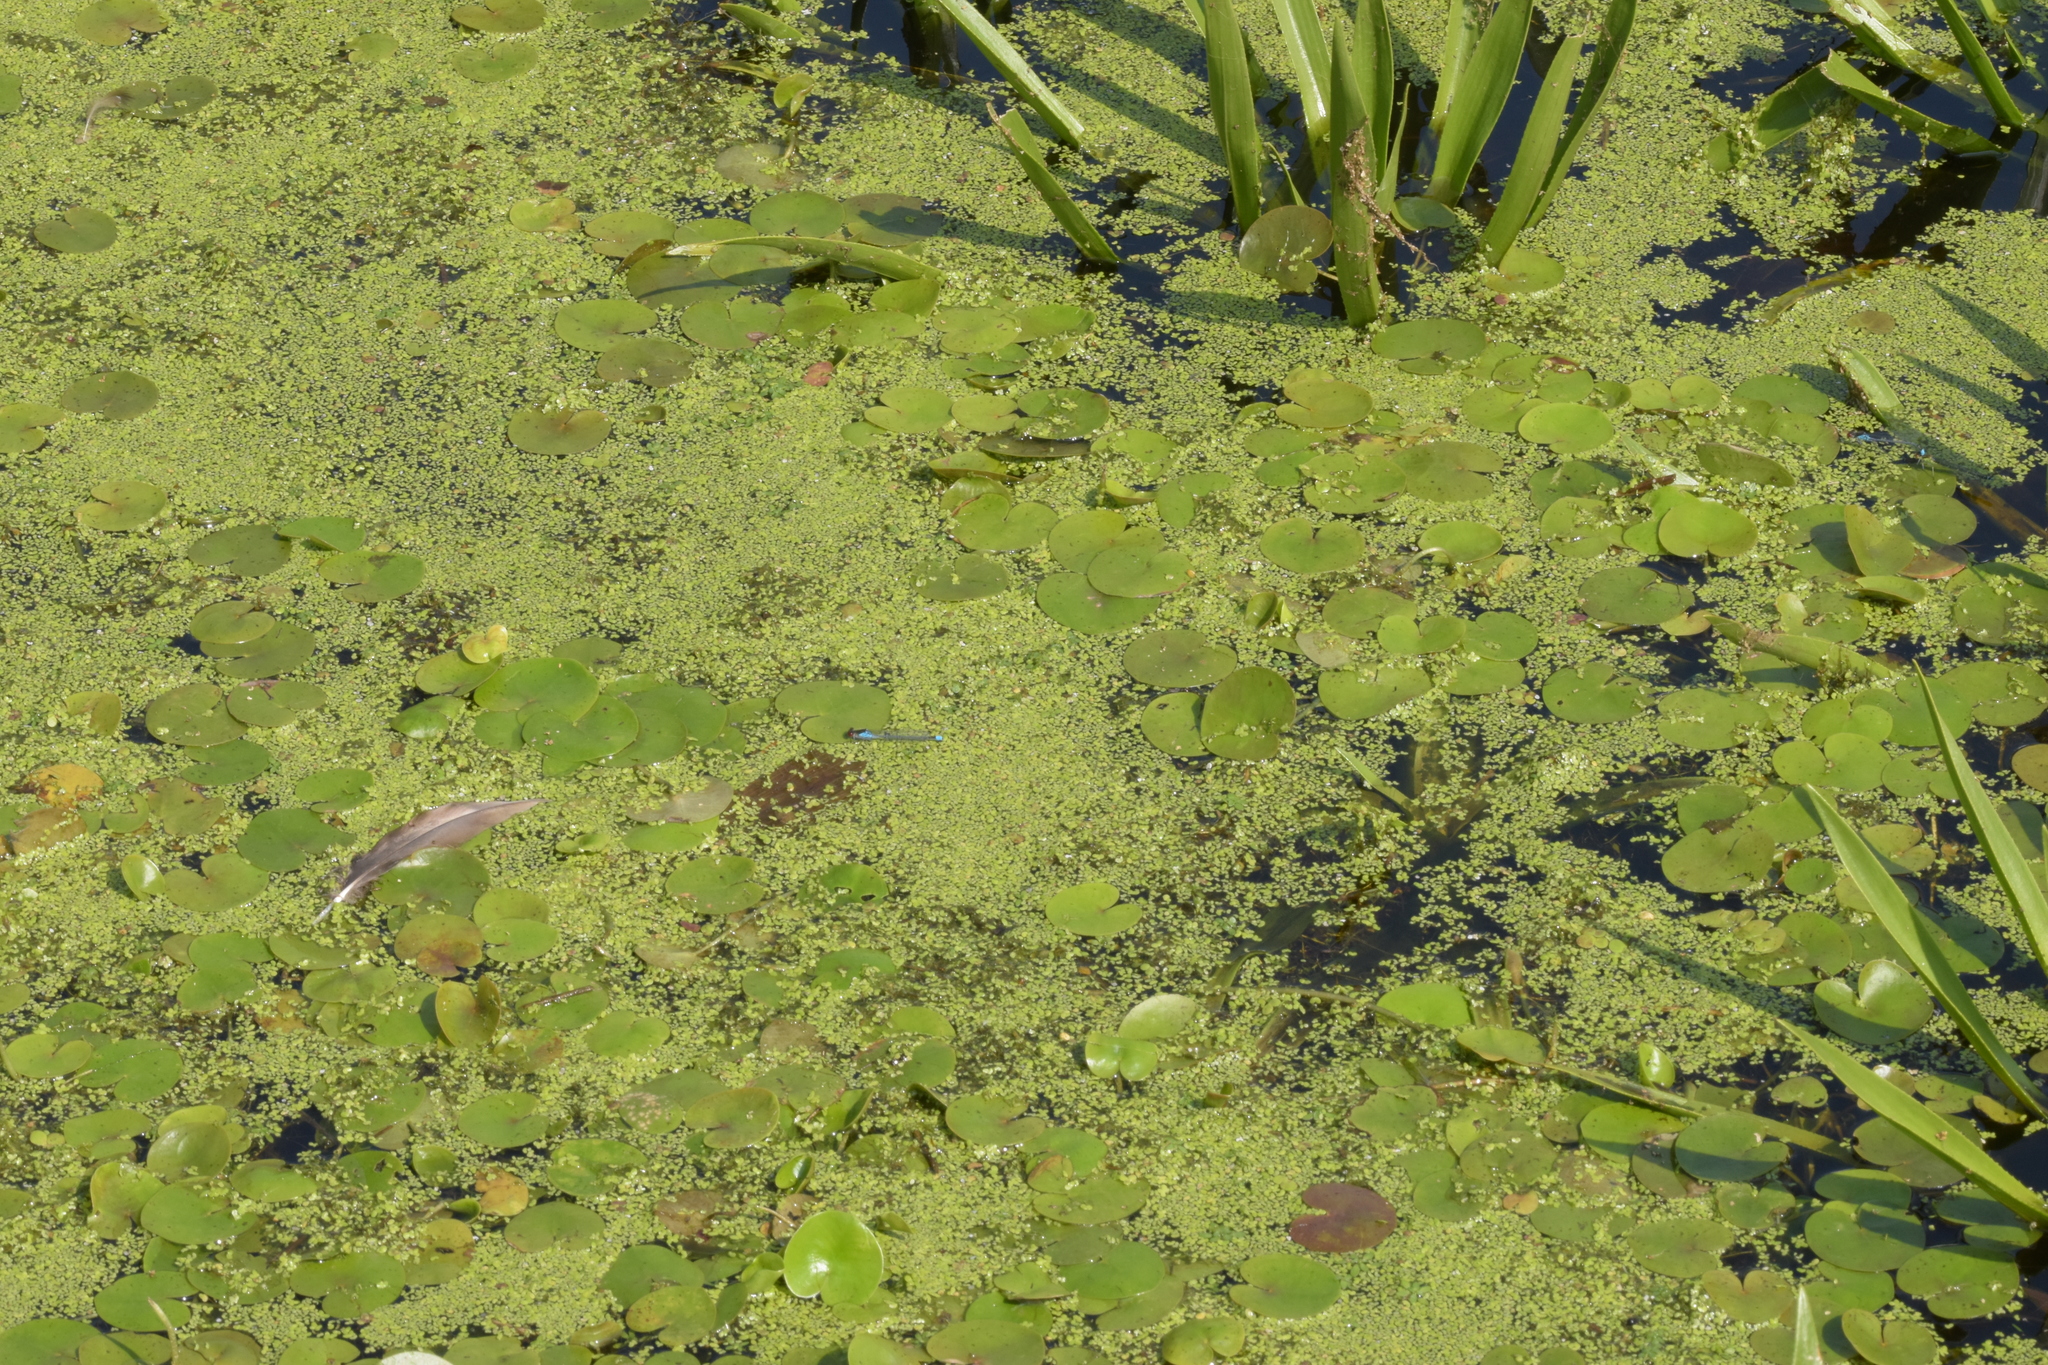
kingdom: Animalia
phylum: Arthropoda
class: Insecta
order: Odonata
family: Coenagrionidae
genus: Erythromma
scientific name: Erythromma najas
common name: Red-eyed damselfly
